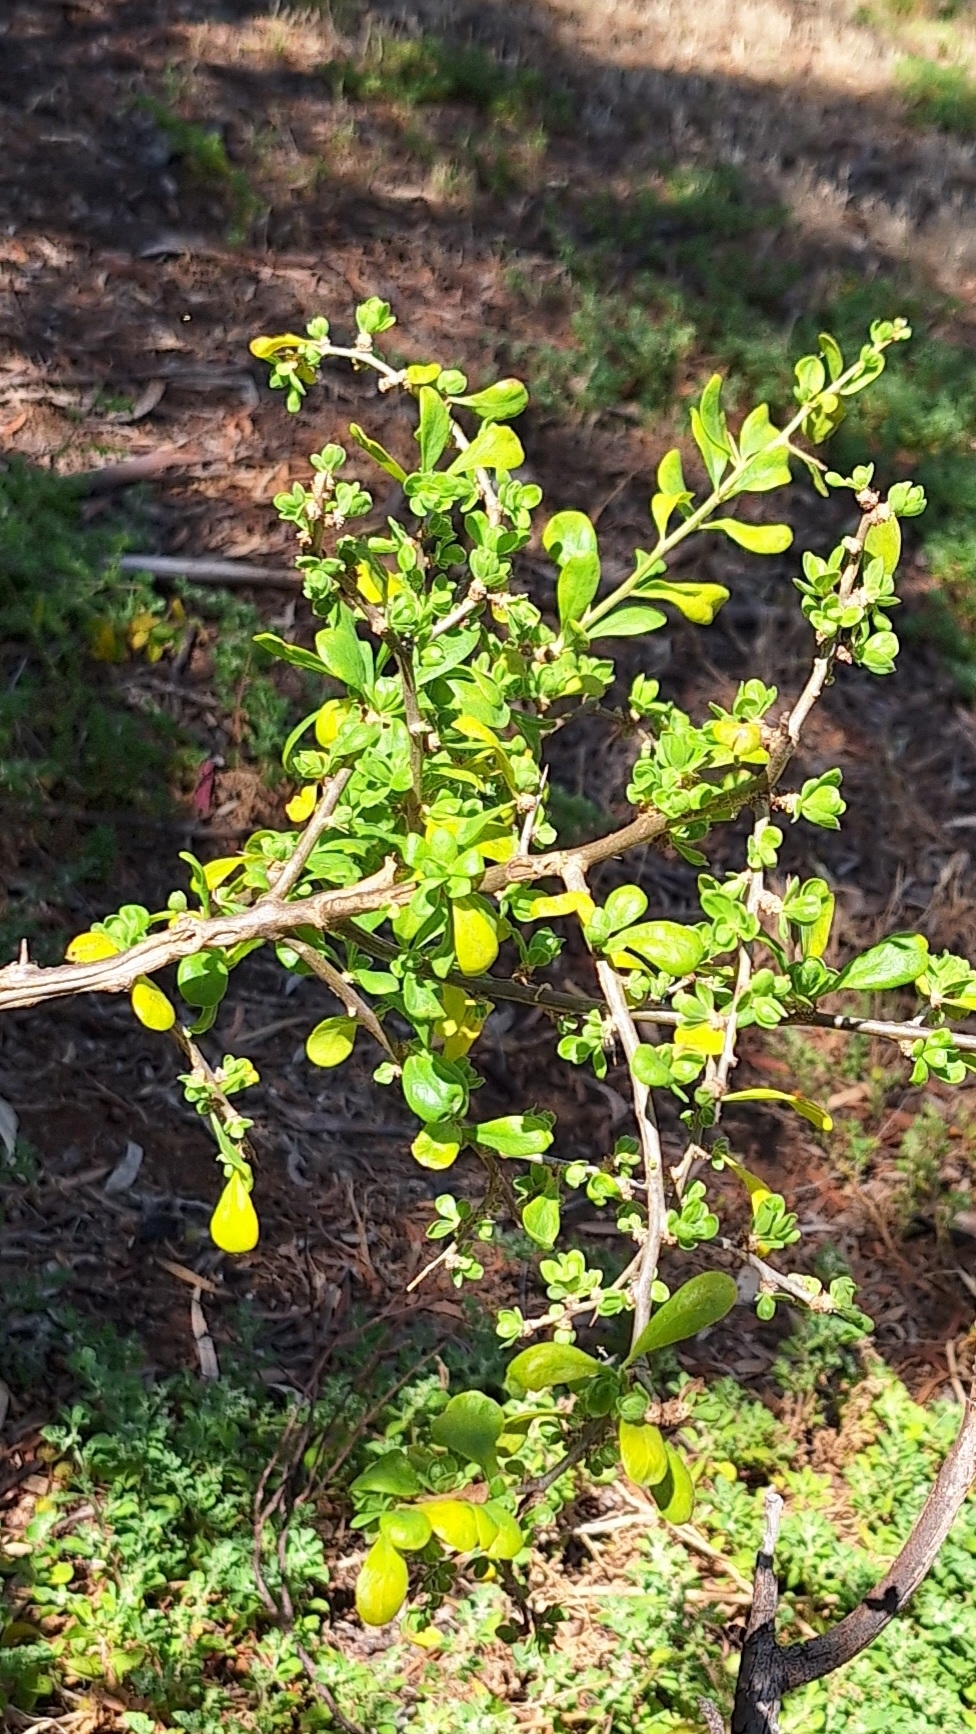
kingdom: Plantae
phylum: Tracheophyta
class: Magnoliopsida
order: Solanales
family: Solanaceae
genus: Lycium
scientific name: Lycium ferocissimum
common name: African boxthorn
